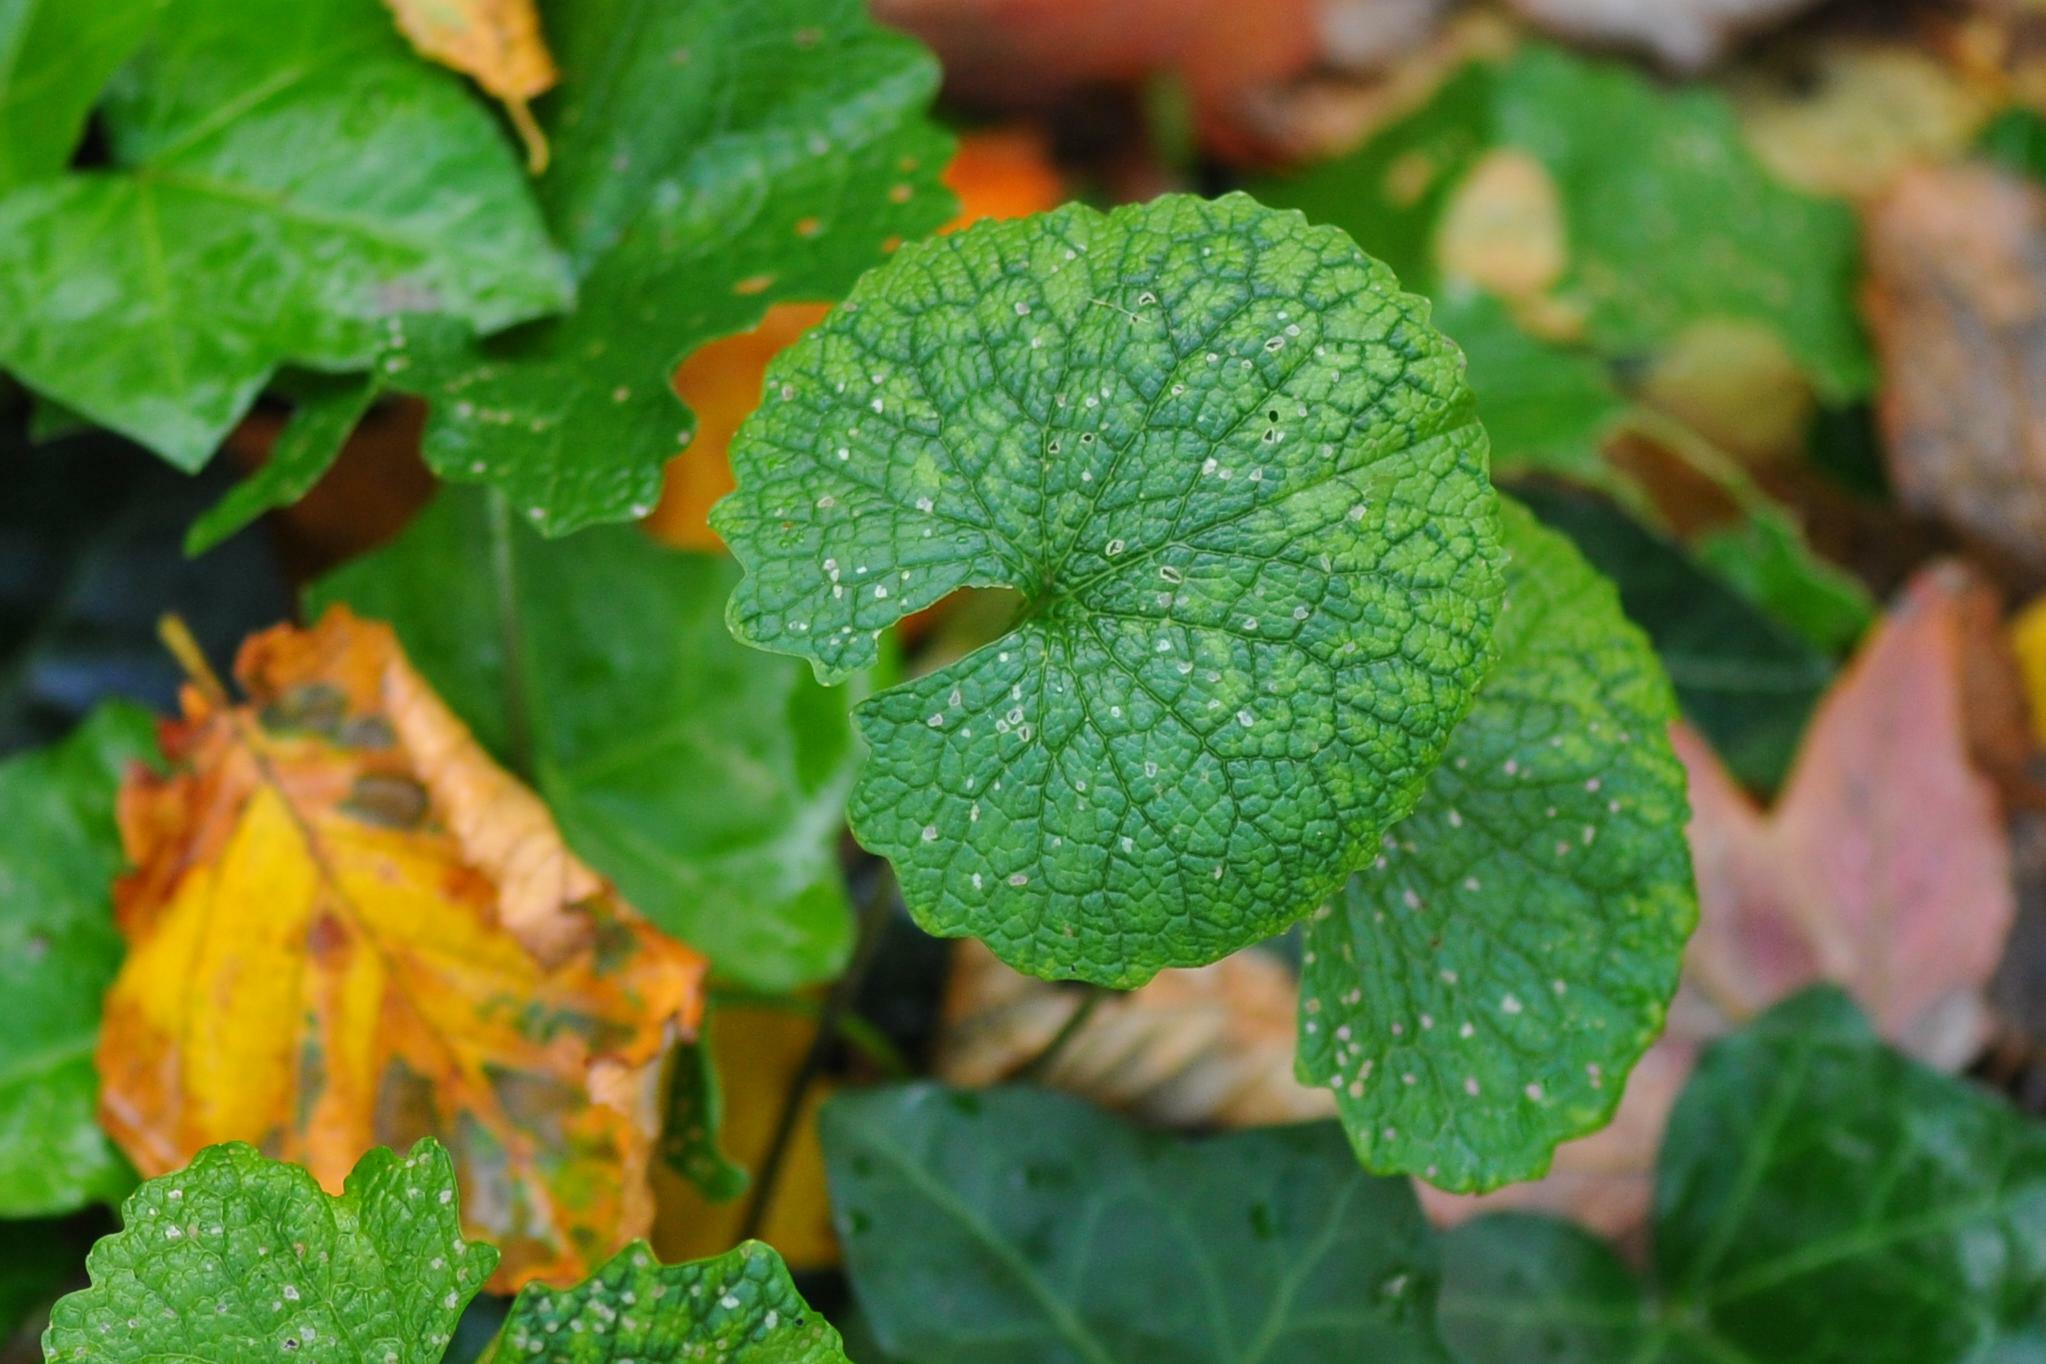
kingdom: Plantae
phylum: Tracheophyta
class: Magnoliopsida
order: Brassicales
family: Brassicaceae
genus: Alliaria
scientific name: Alliaria petiolata
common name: Garlic mustard
